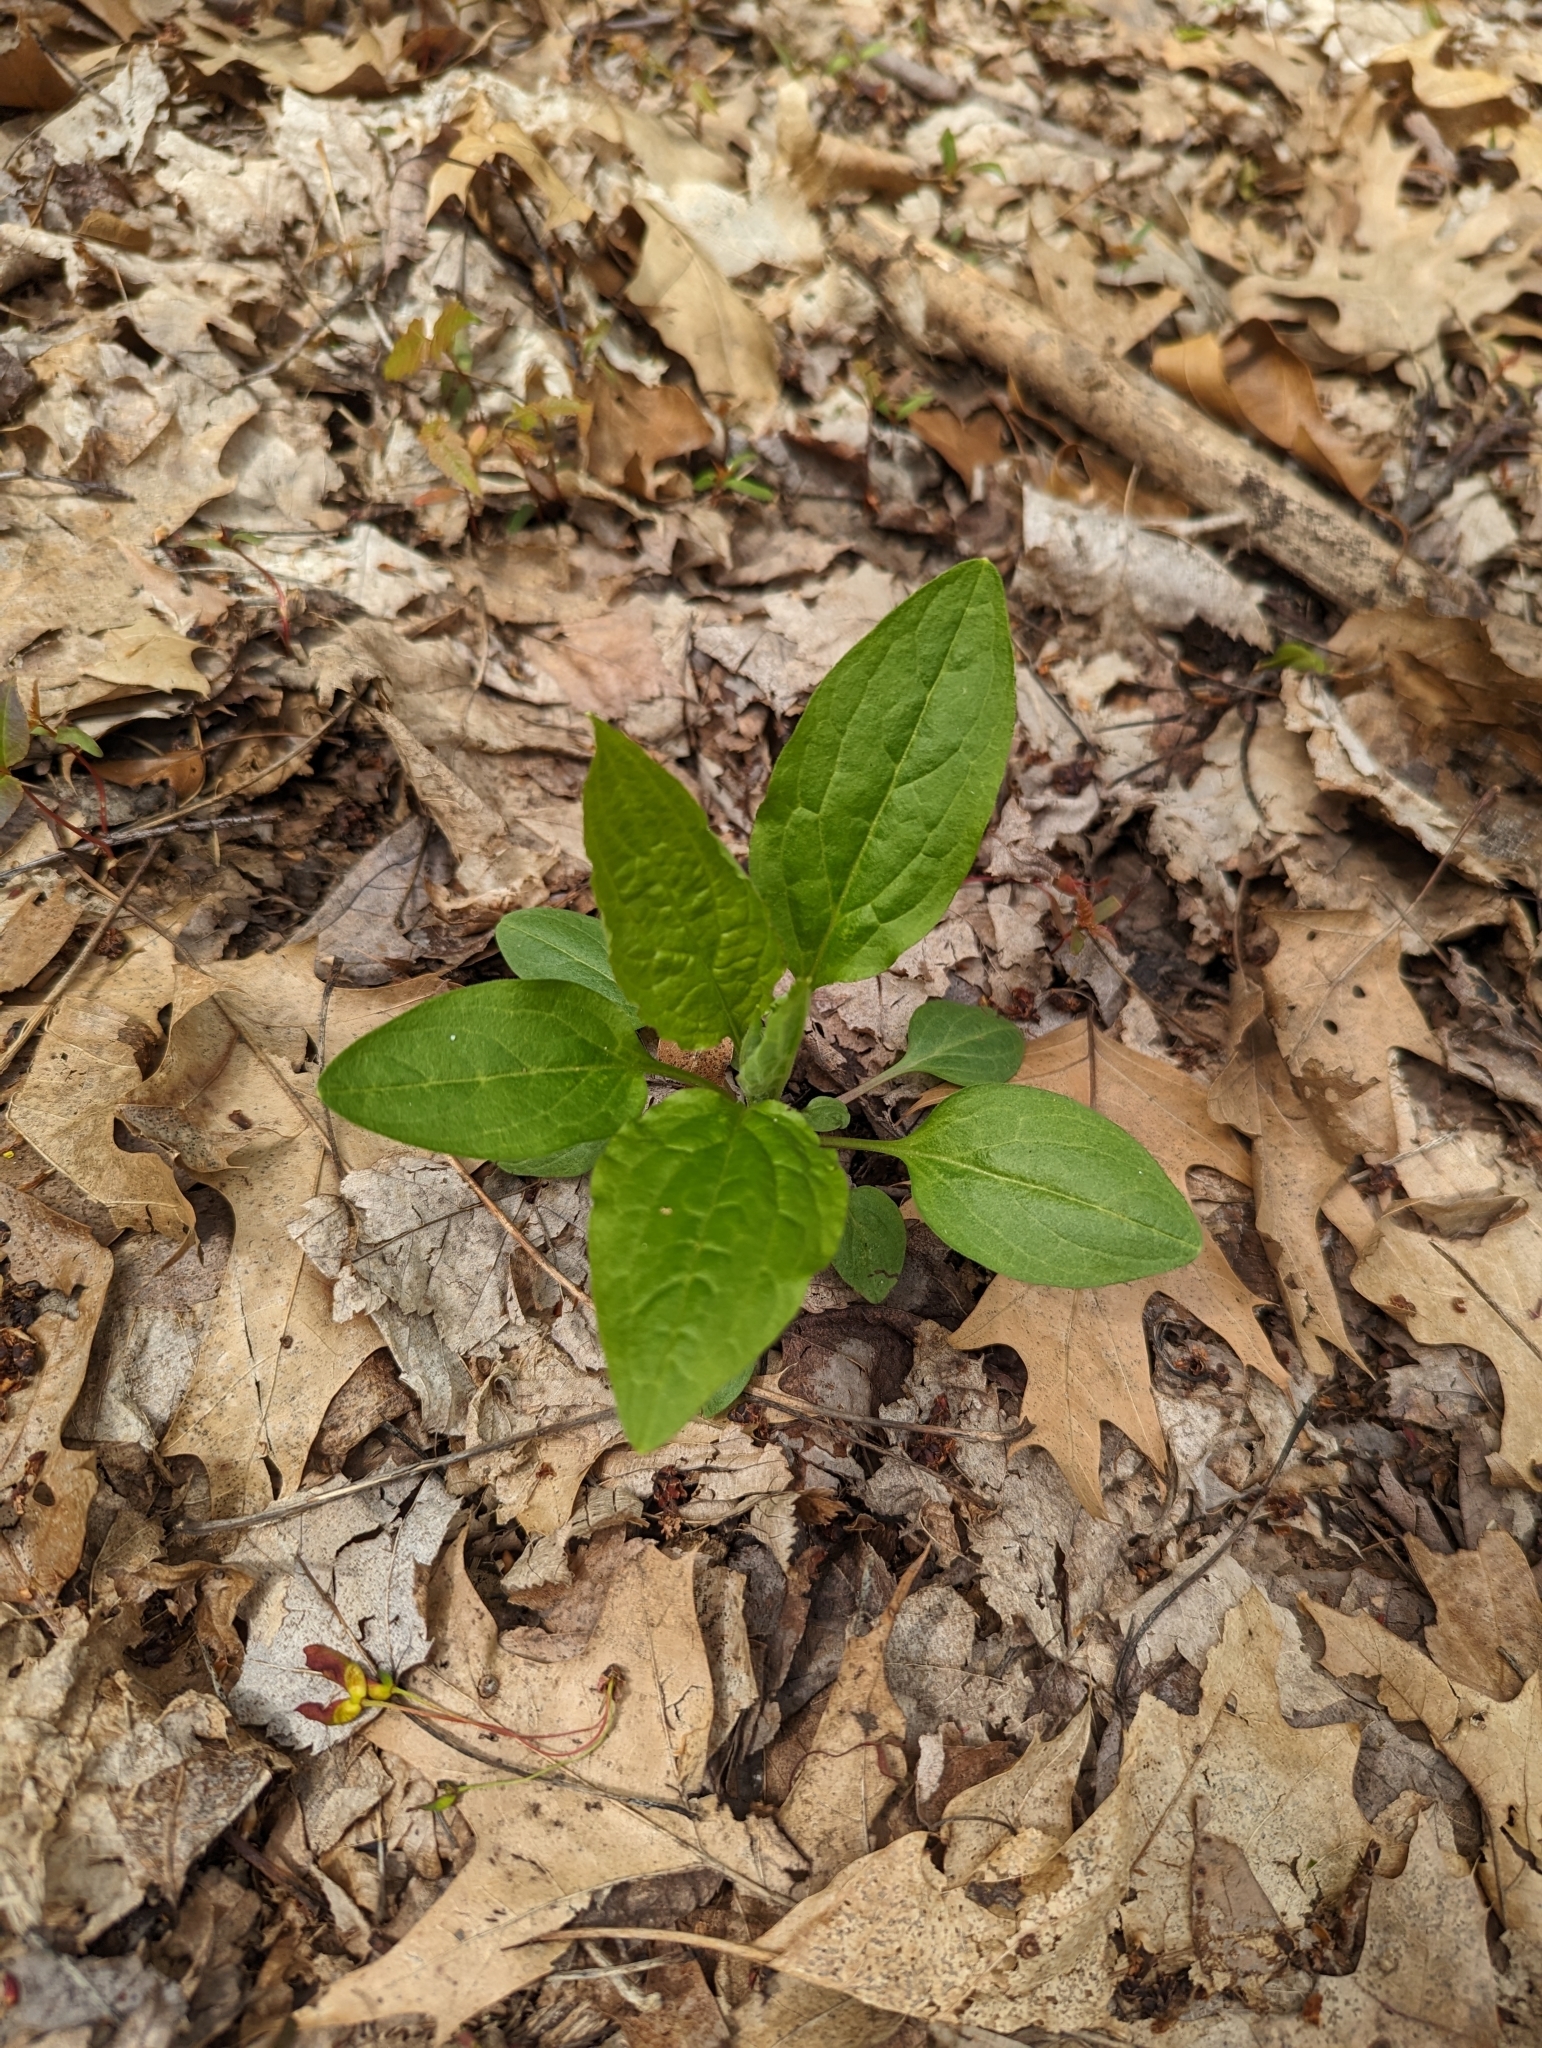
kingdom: Plantae
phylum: Tracheophyta
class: Magnoliopsida
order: Boraginales
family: Boraginaceae
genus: Hackelia
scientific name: Hackelia virginiana
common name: Beggar's-lice
